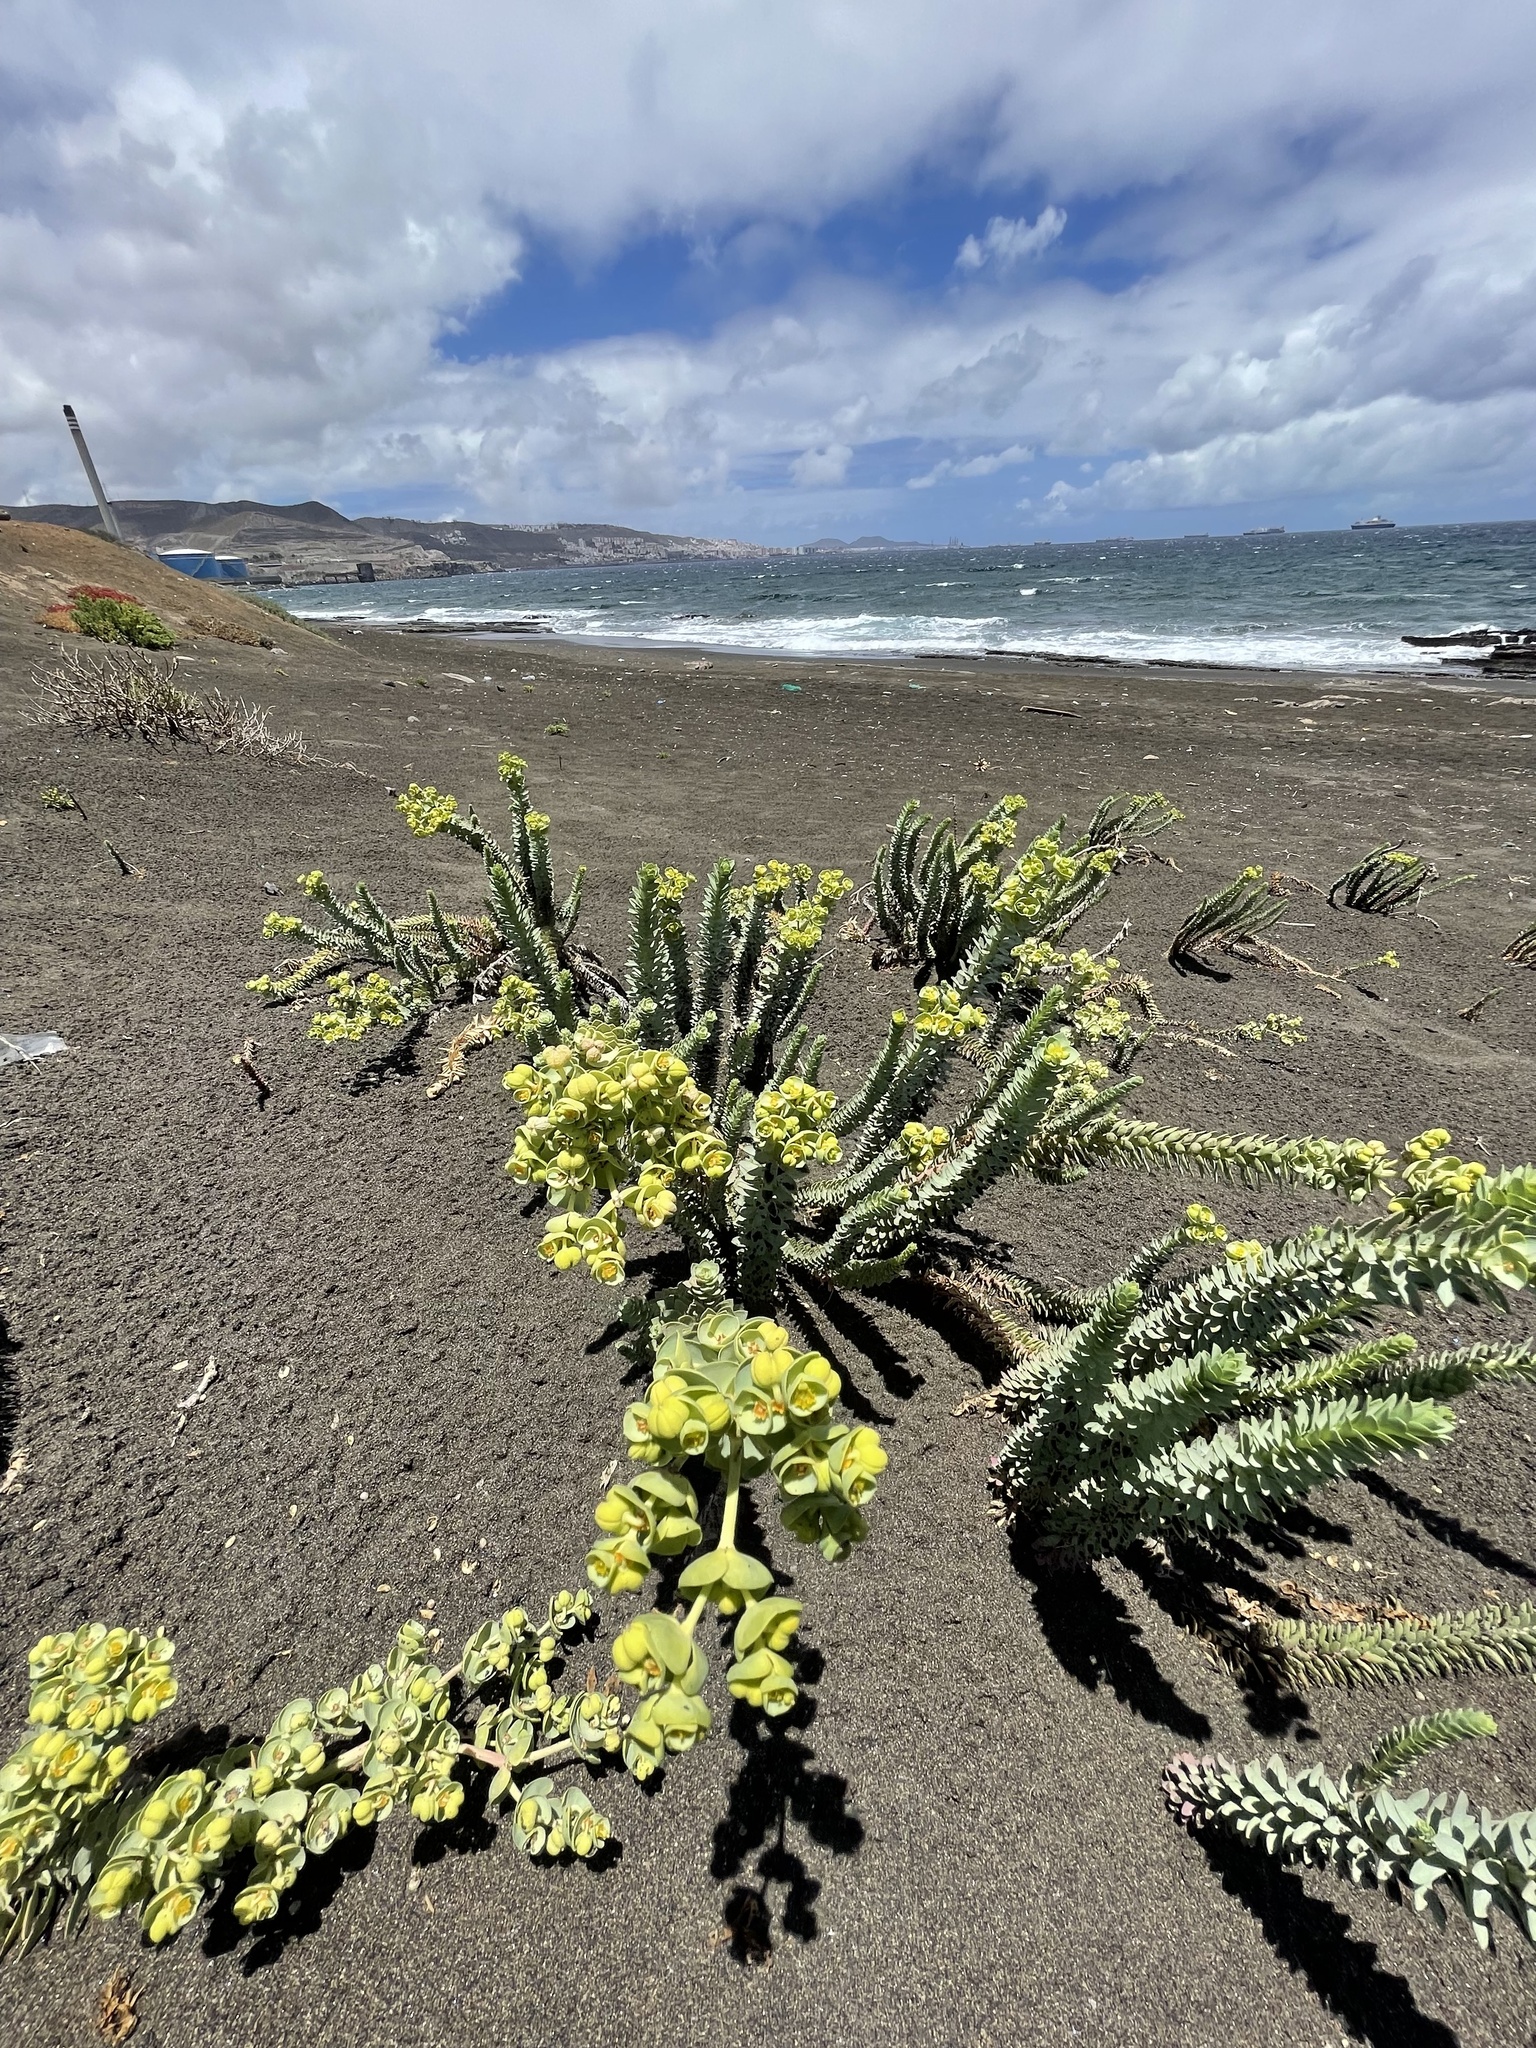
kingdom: Plantae
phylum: Tracheophyta
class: Magnoliopsida
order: Malpighiales
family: Euphorbiaceae
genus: Euphorbia
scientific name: Euphorbia paralias
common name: Sea spurge
